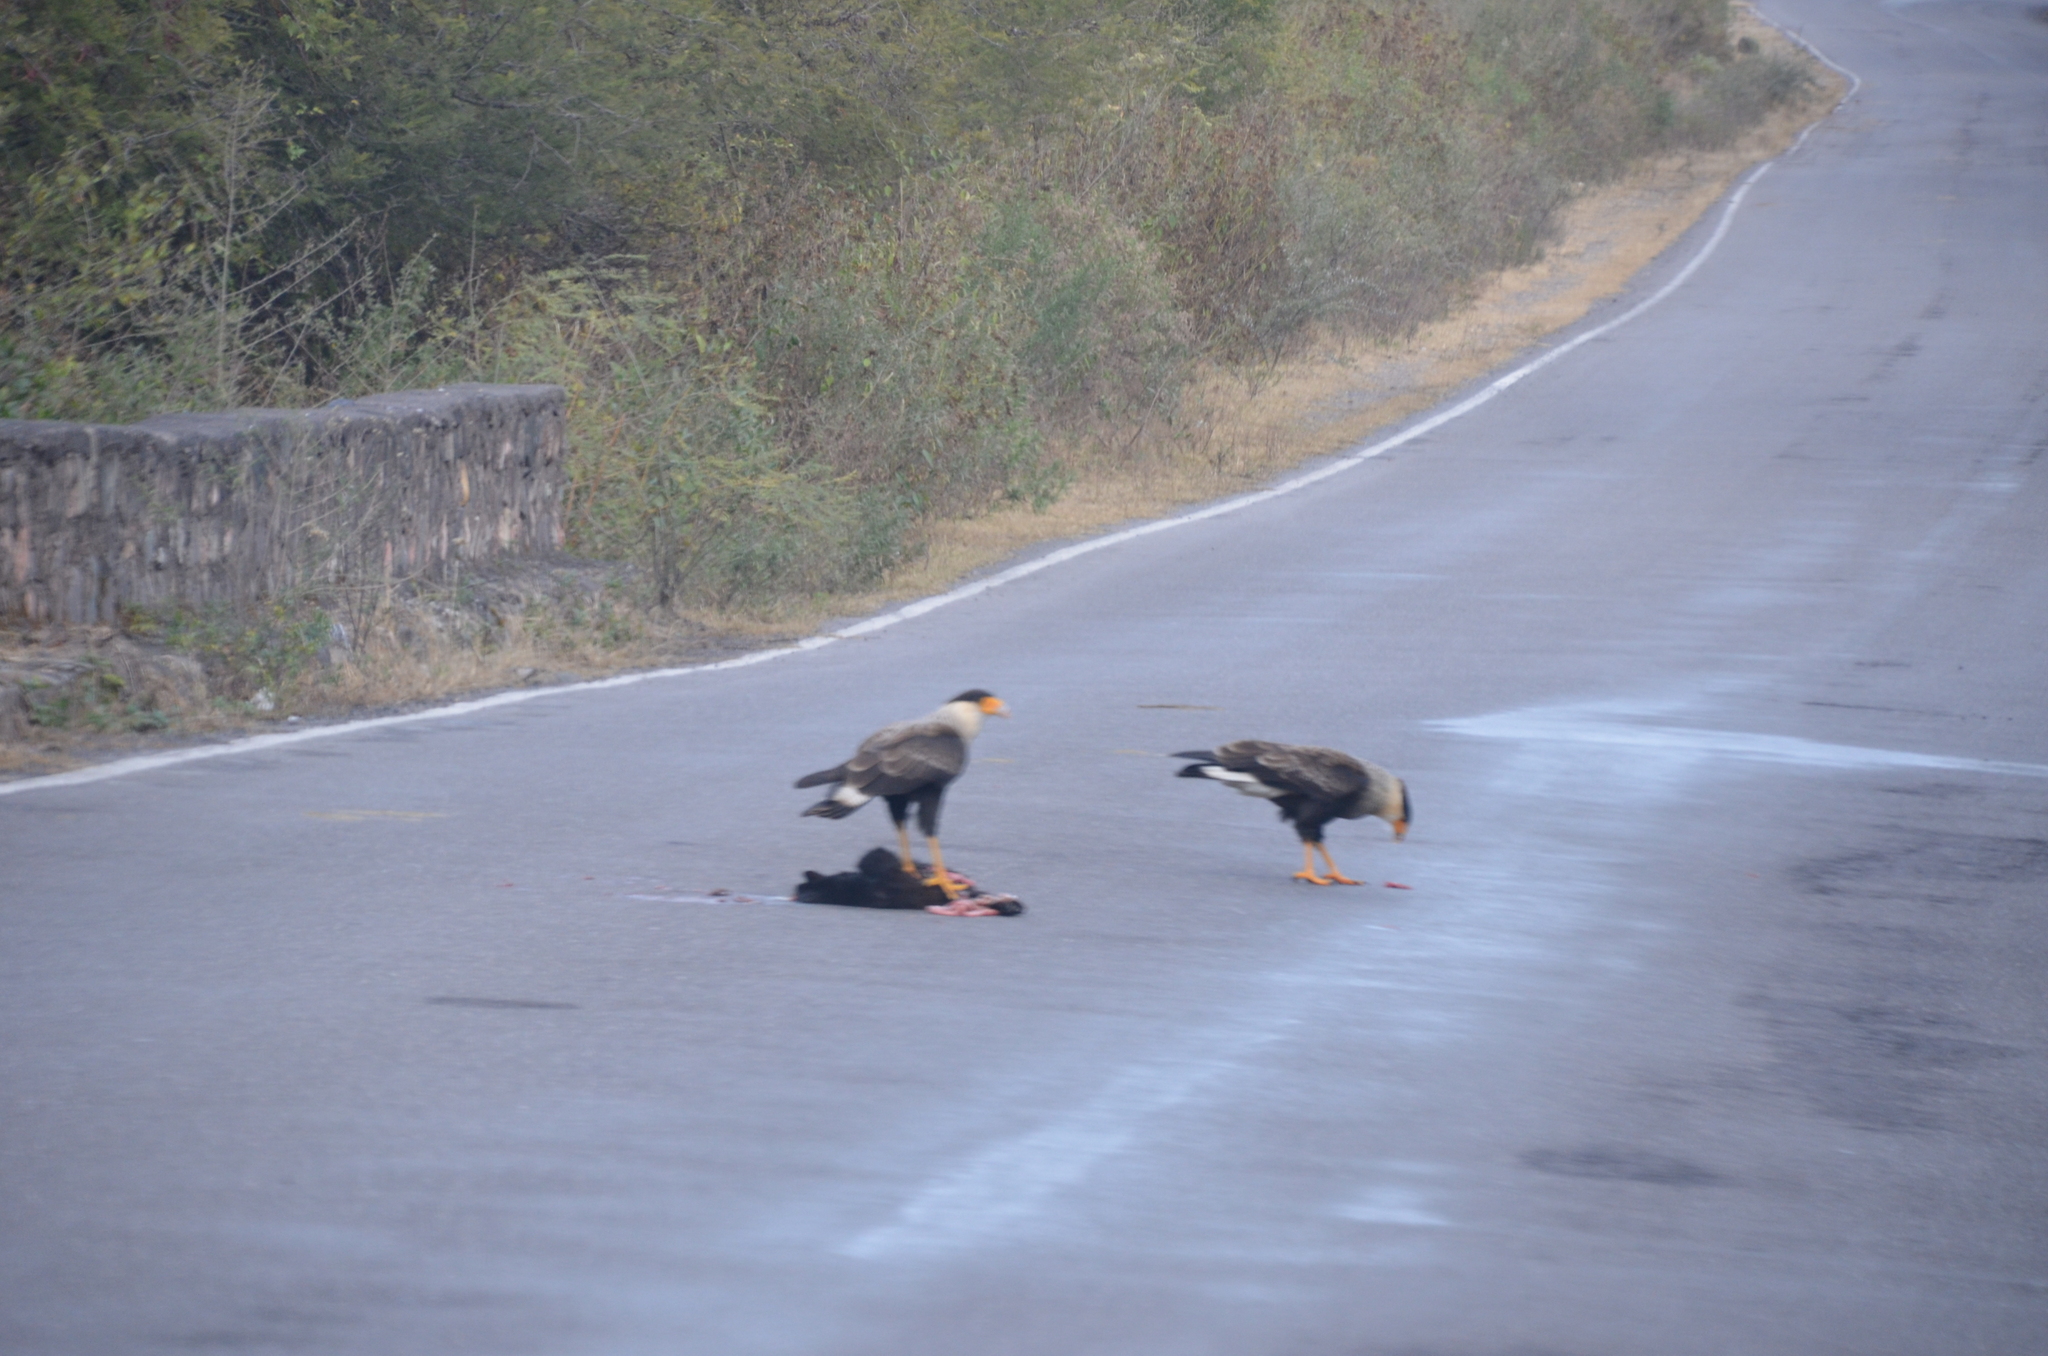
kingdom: Animalia
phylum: Chordata
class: Aves
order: Falconiformes
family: Falconidae
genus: Caracara
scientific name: Caracara plancus
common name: Southern caracara
